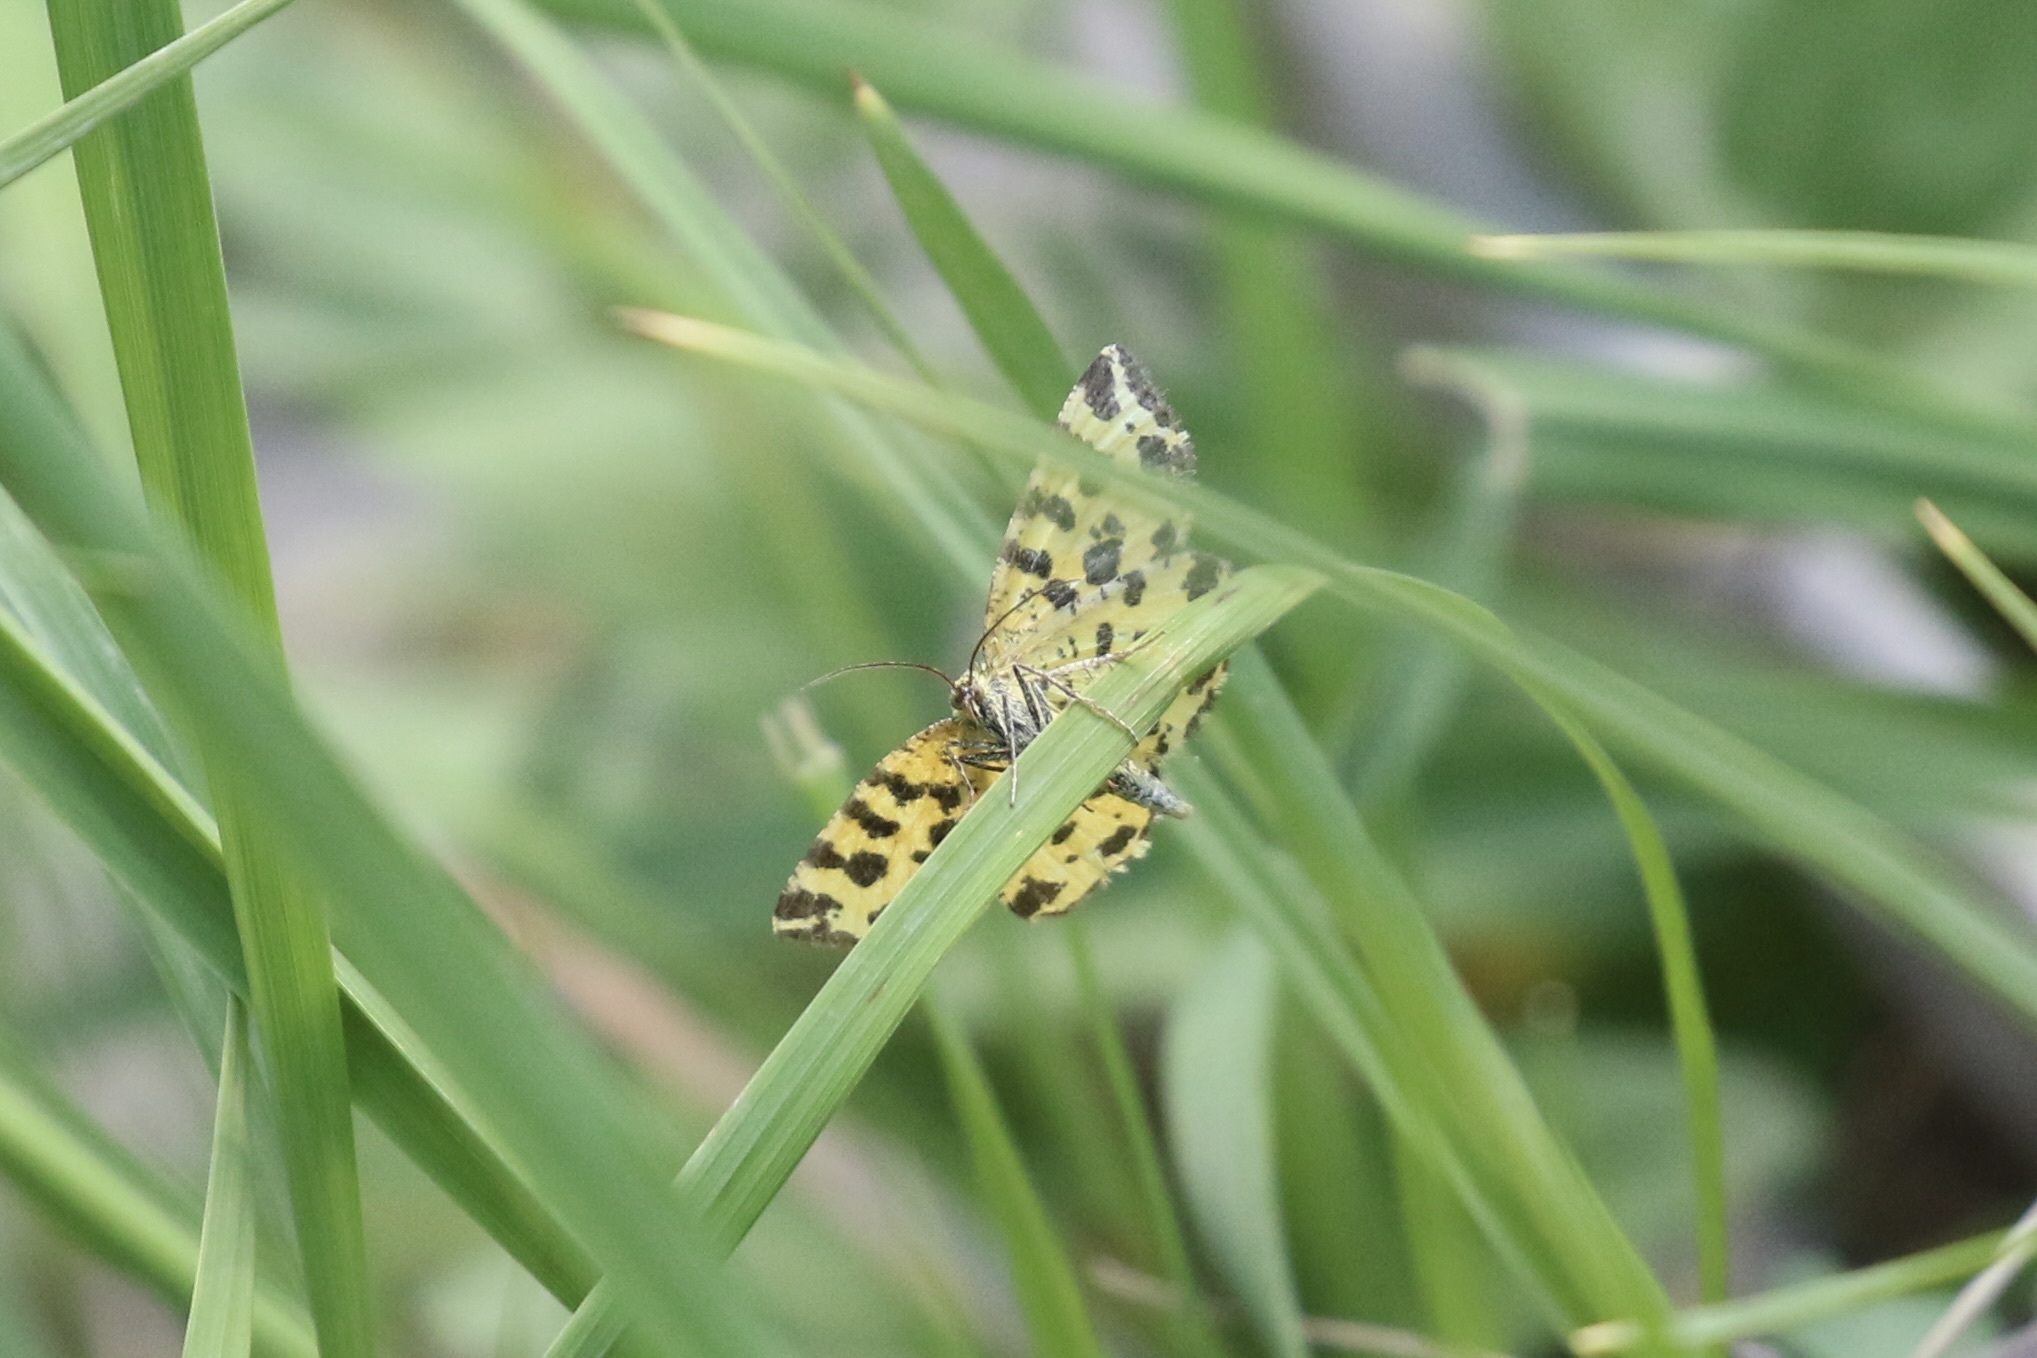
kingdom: Animalia
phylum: Arthropoda
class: Insecta
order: Lepidoptera
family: Geometridae
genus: Pseudopanthera
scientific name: Pseudopanthera macularia
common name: Speckled yellow
